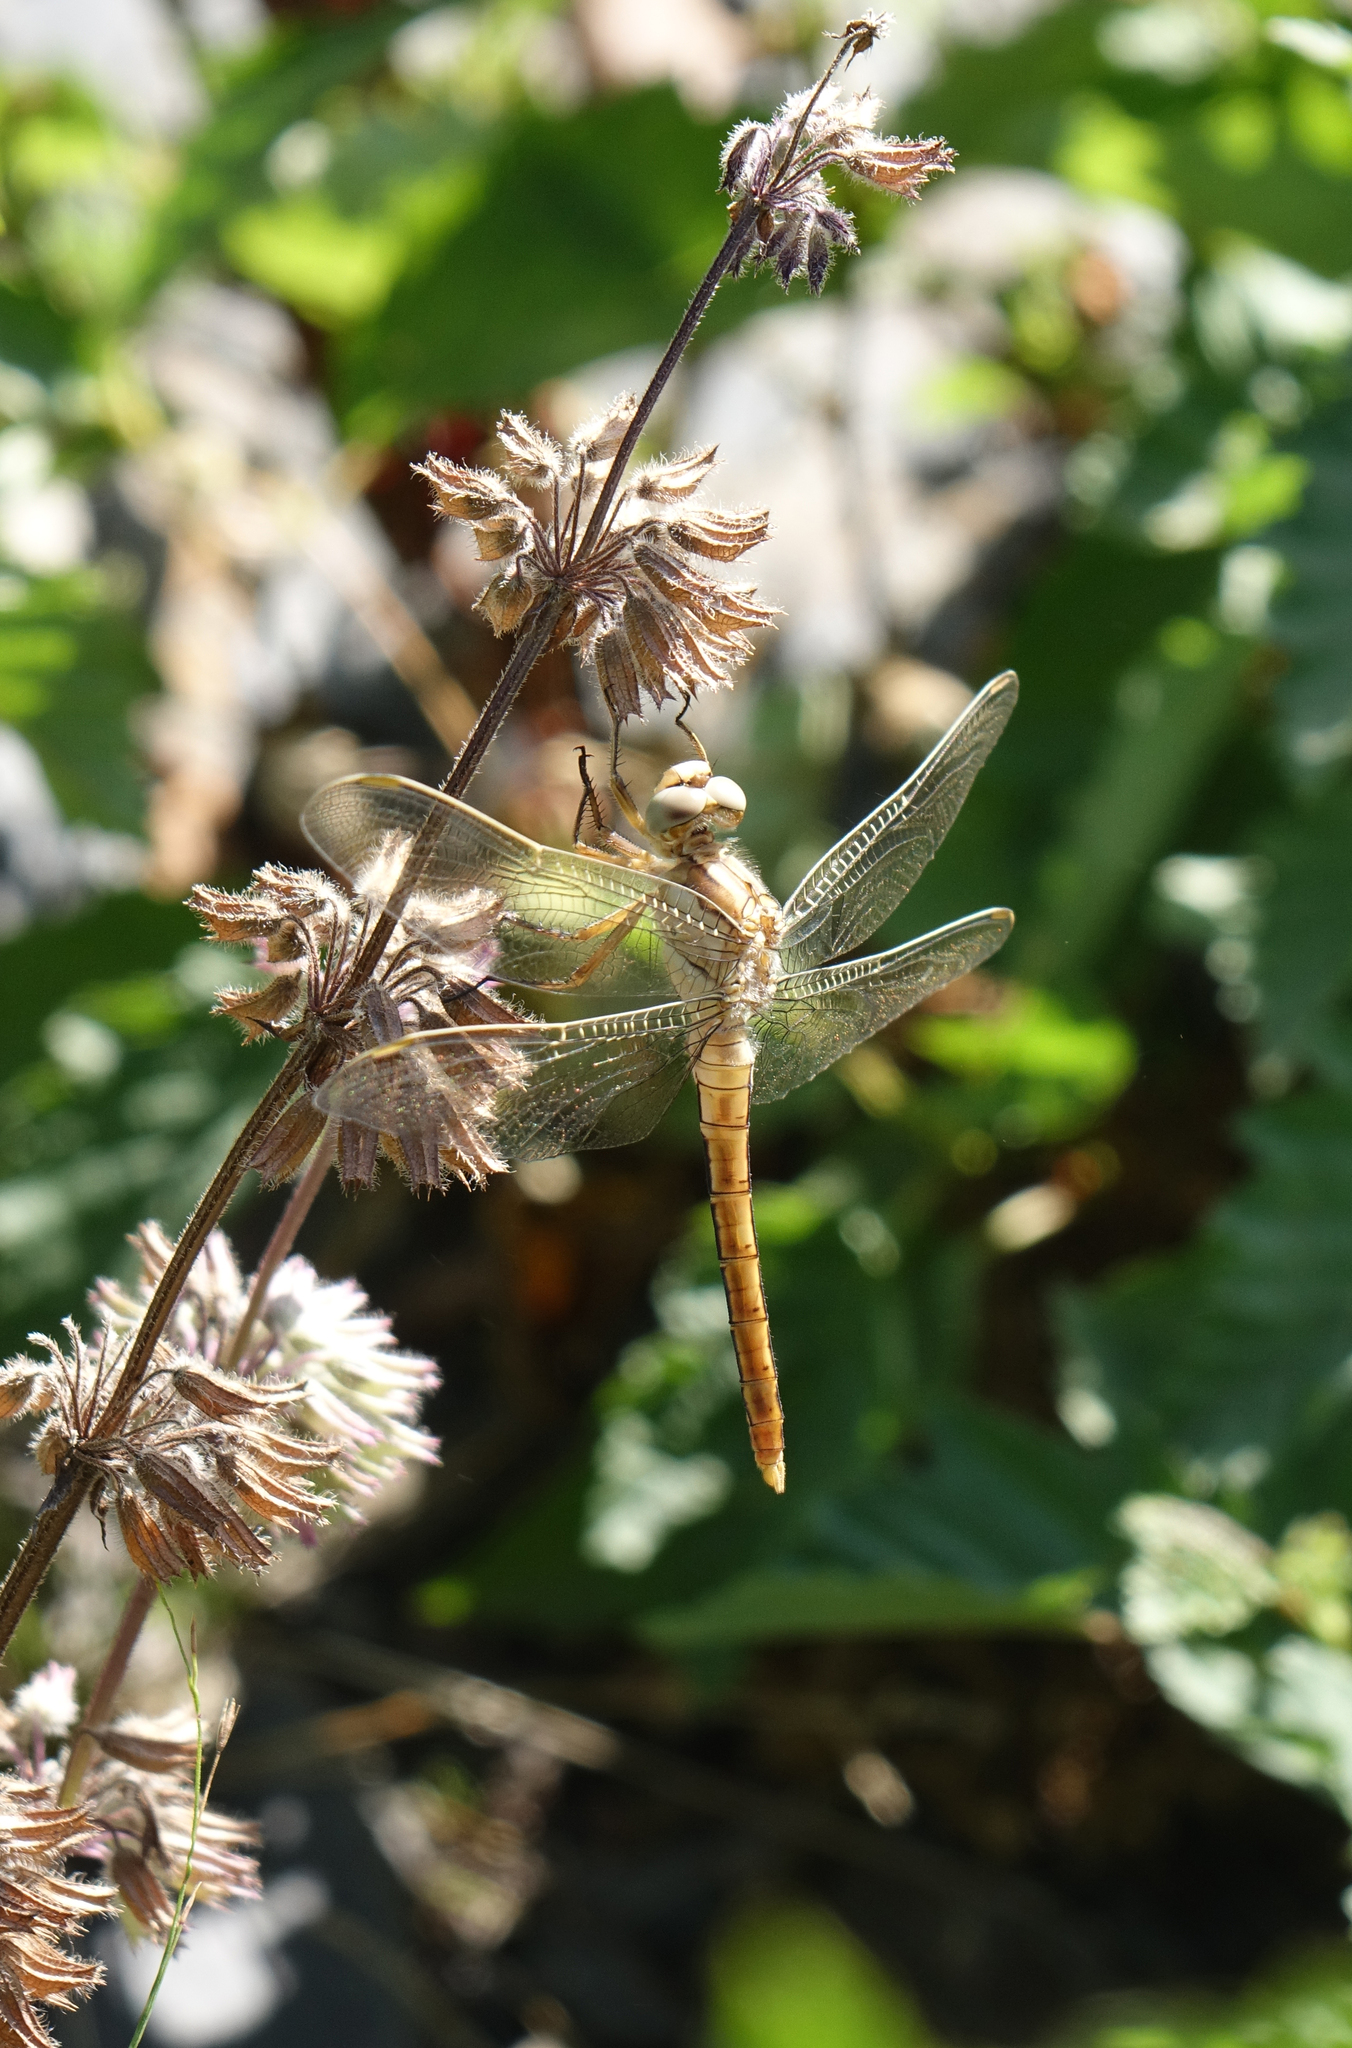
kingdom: Plantae
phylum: Tracheophyta
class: Magnoliopsida
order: Lamiales
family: Lamiaceae
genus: Salvia
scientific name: Salvia verticillata
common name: Whorled clary
